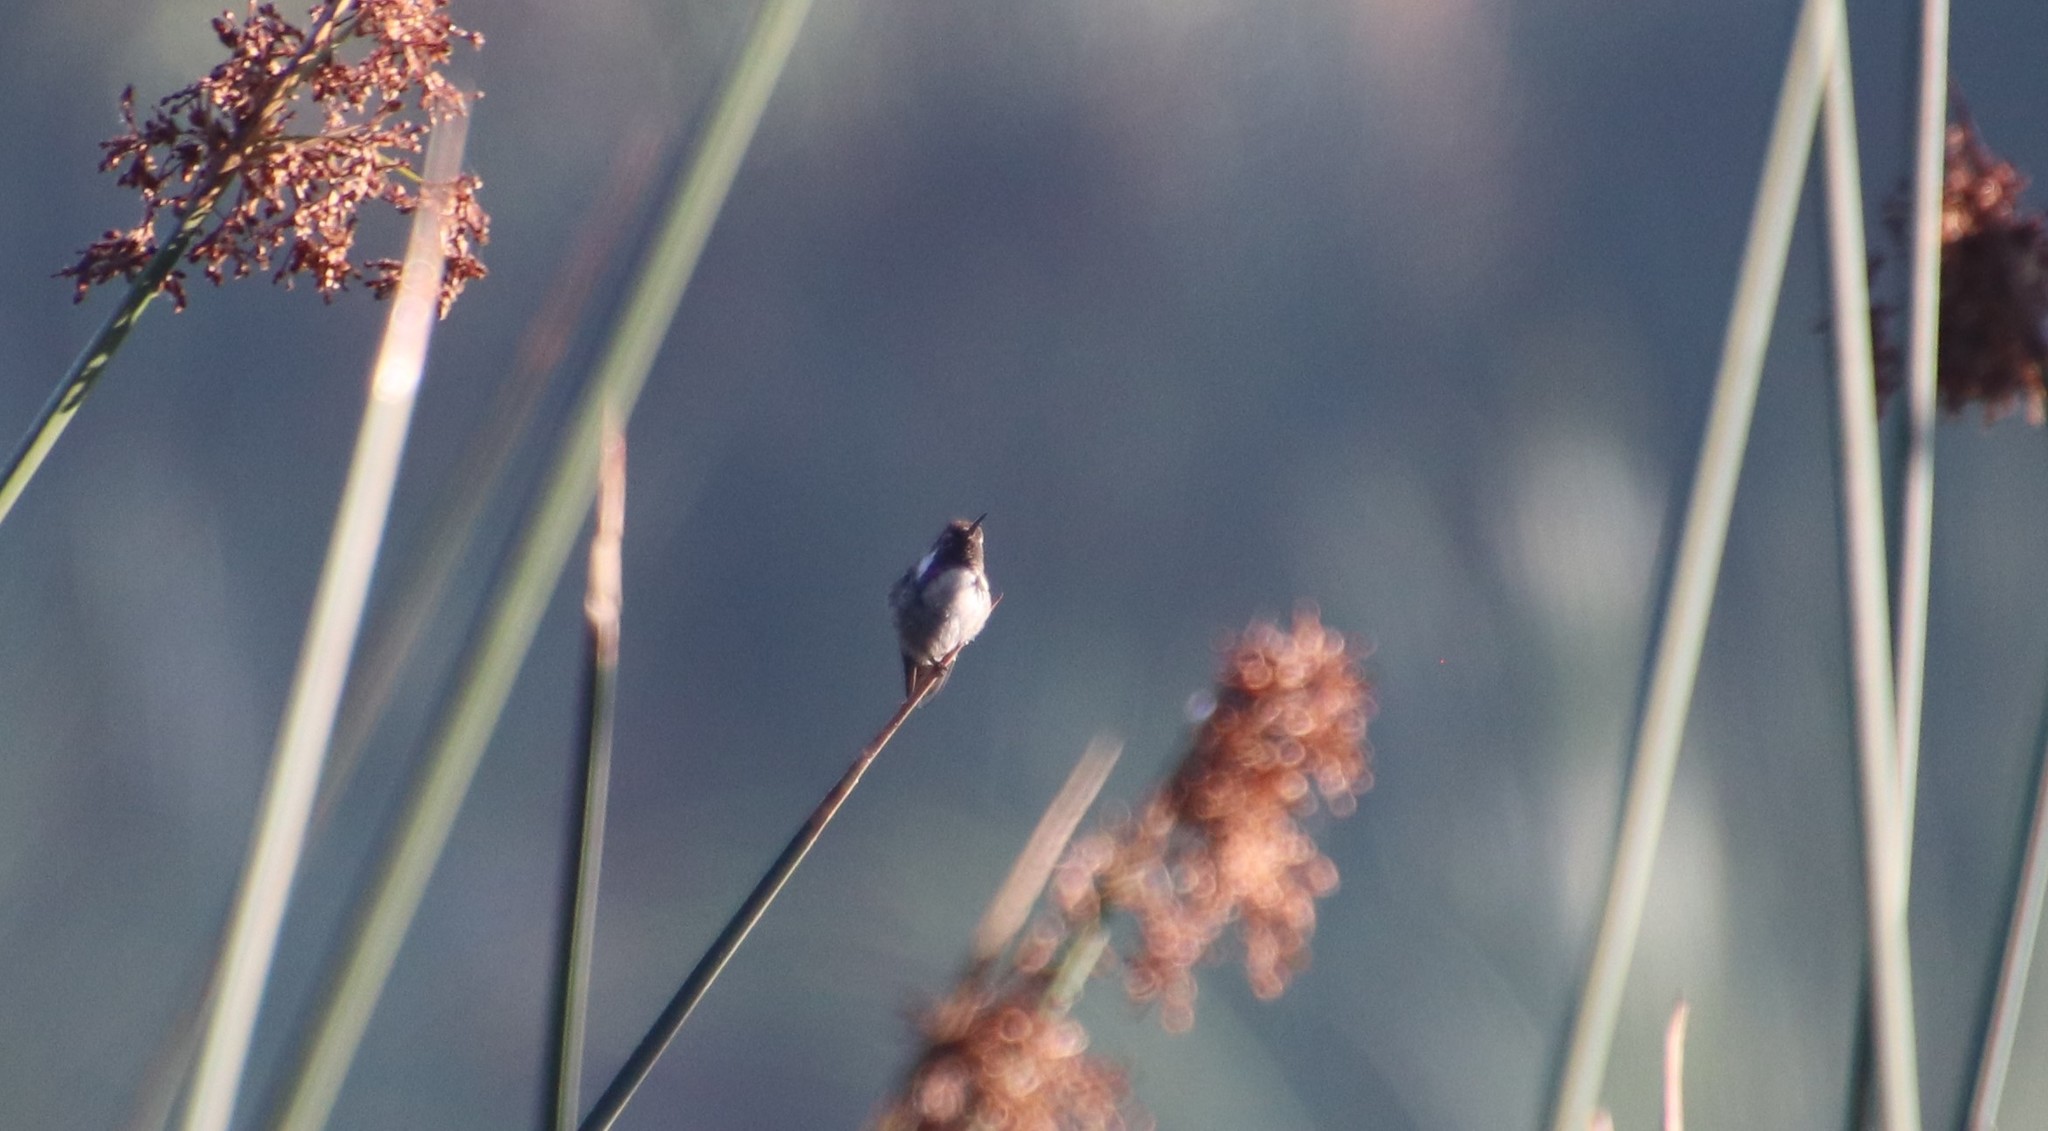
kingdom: Animalia
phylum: Chordata
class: Aves
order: Apodiformes
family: Trochilidae
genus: Calypte
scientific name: Calypte costae
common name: Costa's hummingbird
